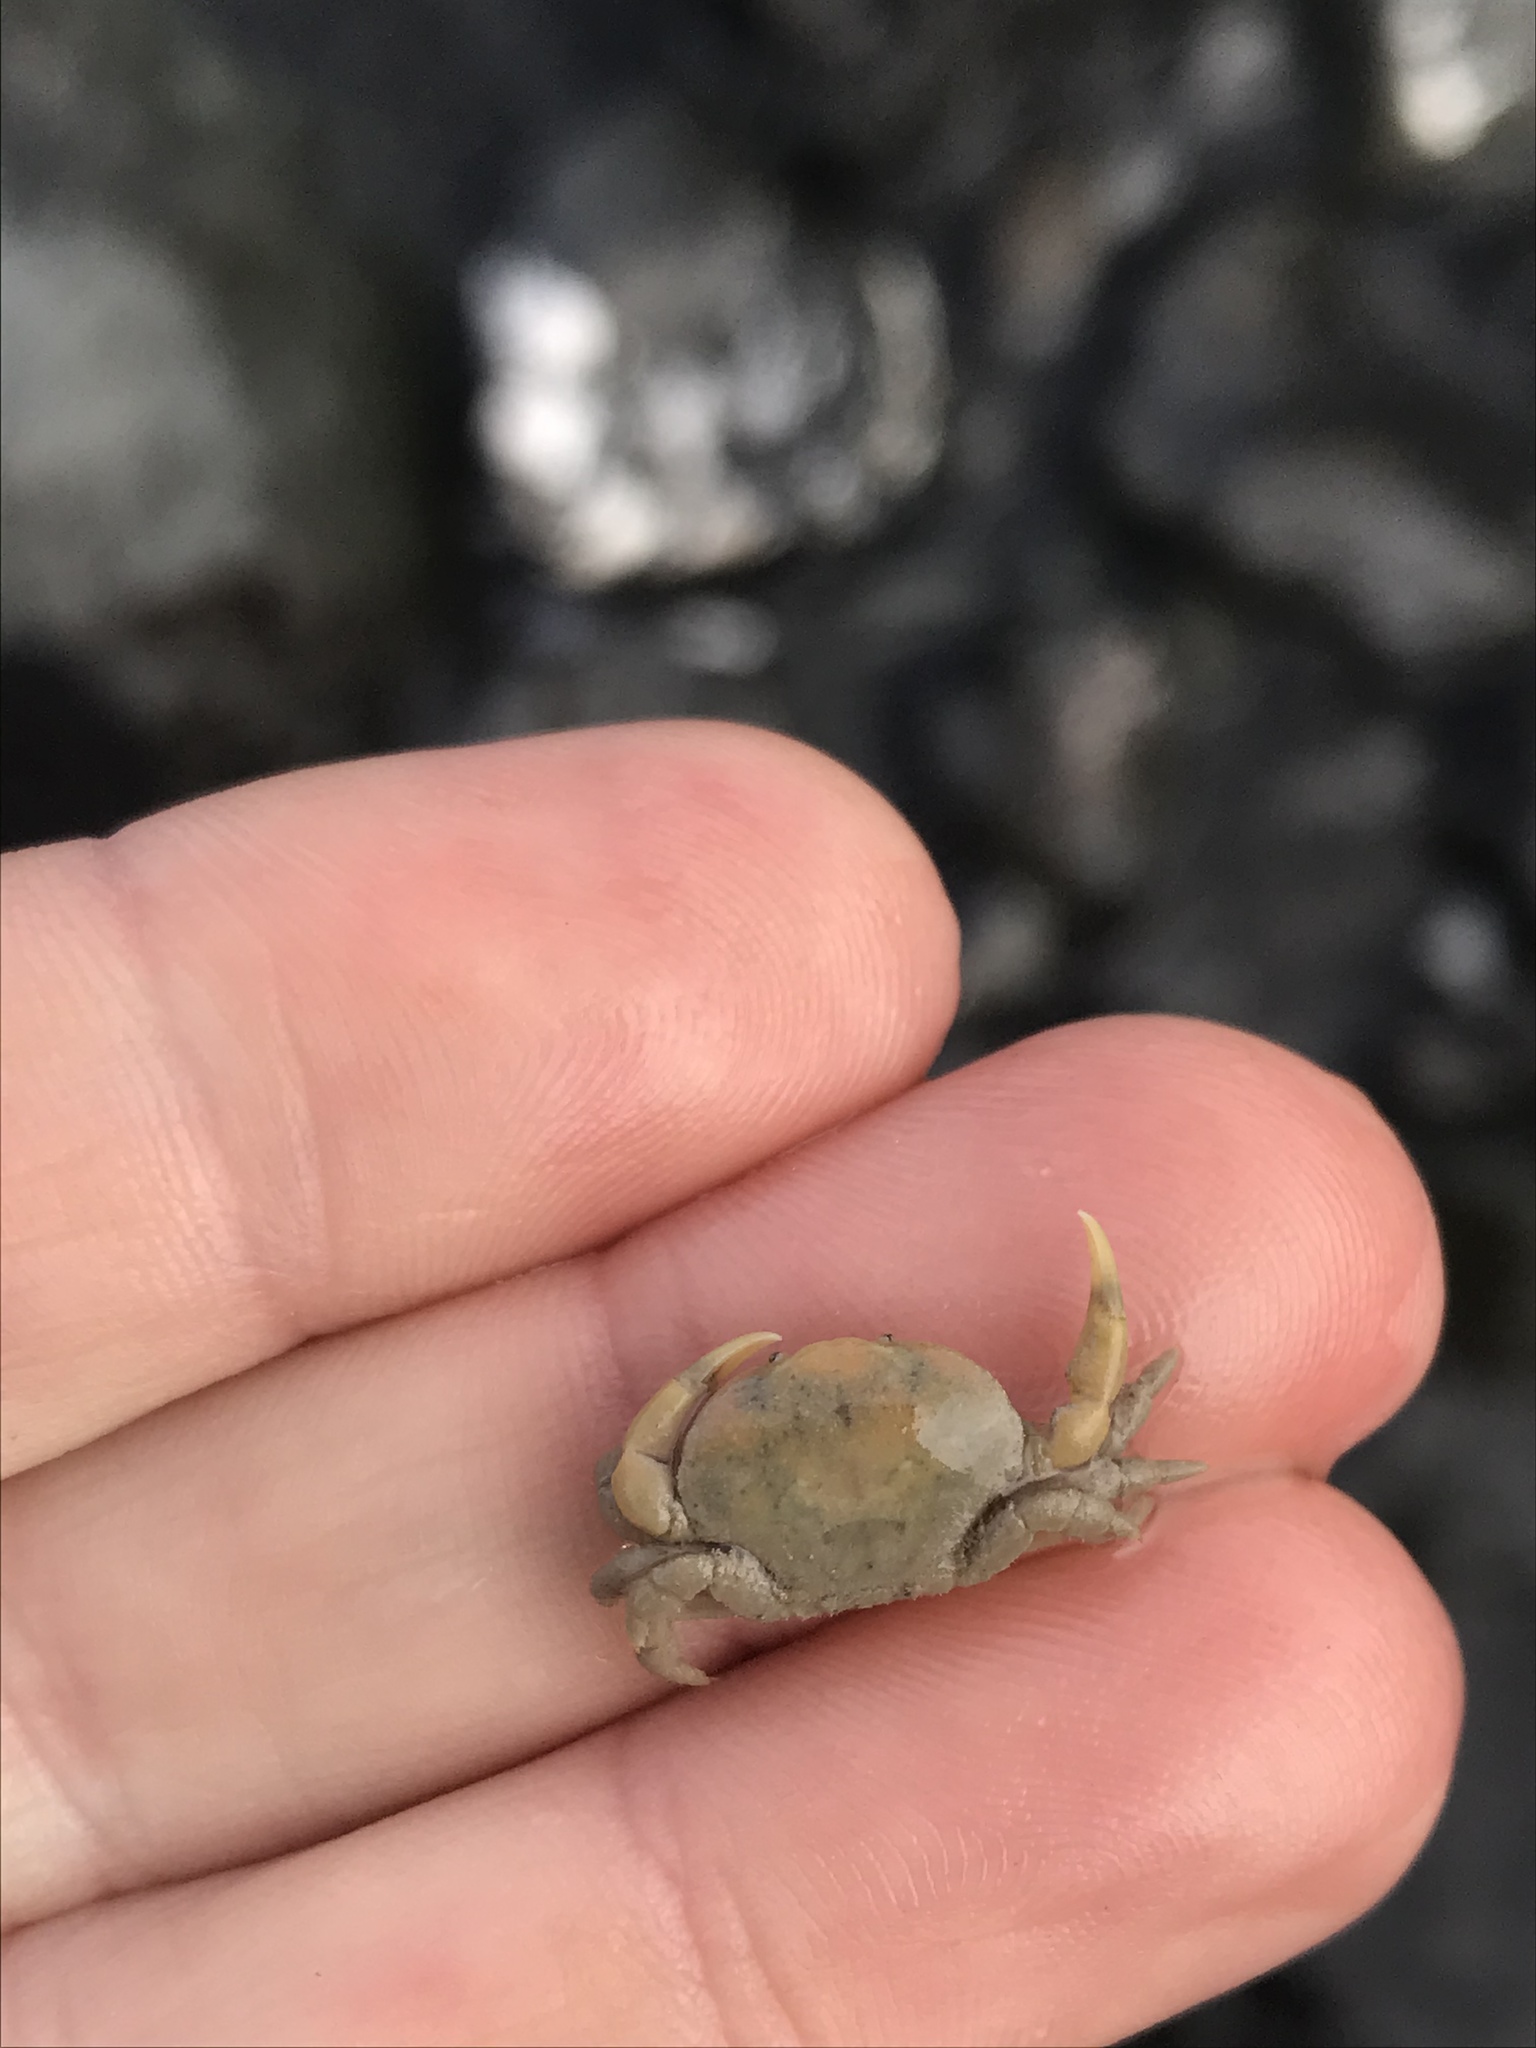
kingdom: Animalia
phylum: Arthropoda
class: Malacostraca
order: Decapoda
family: Heteroziidae
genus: Heterozius
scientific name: Heterozius rotundifrons
